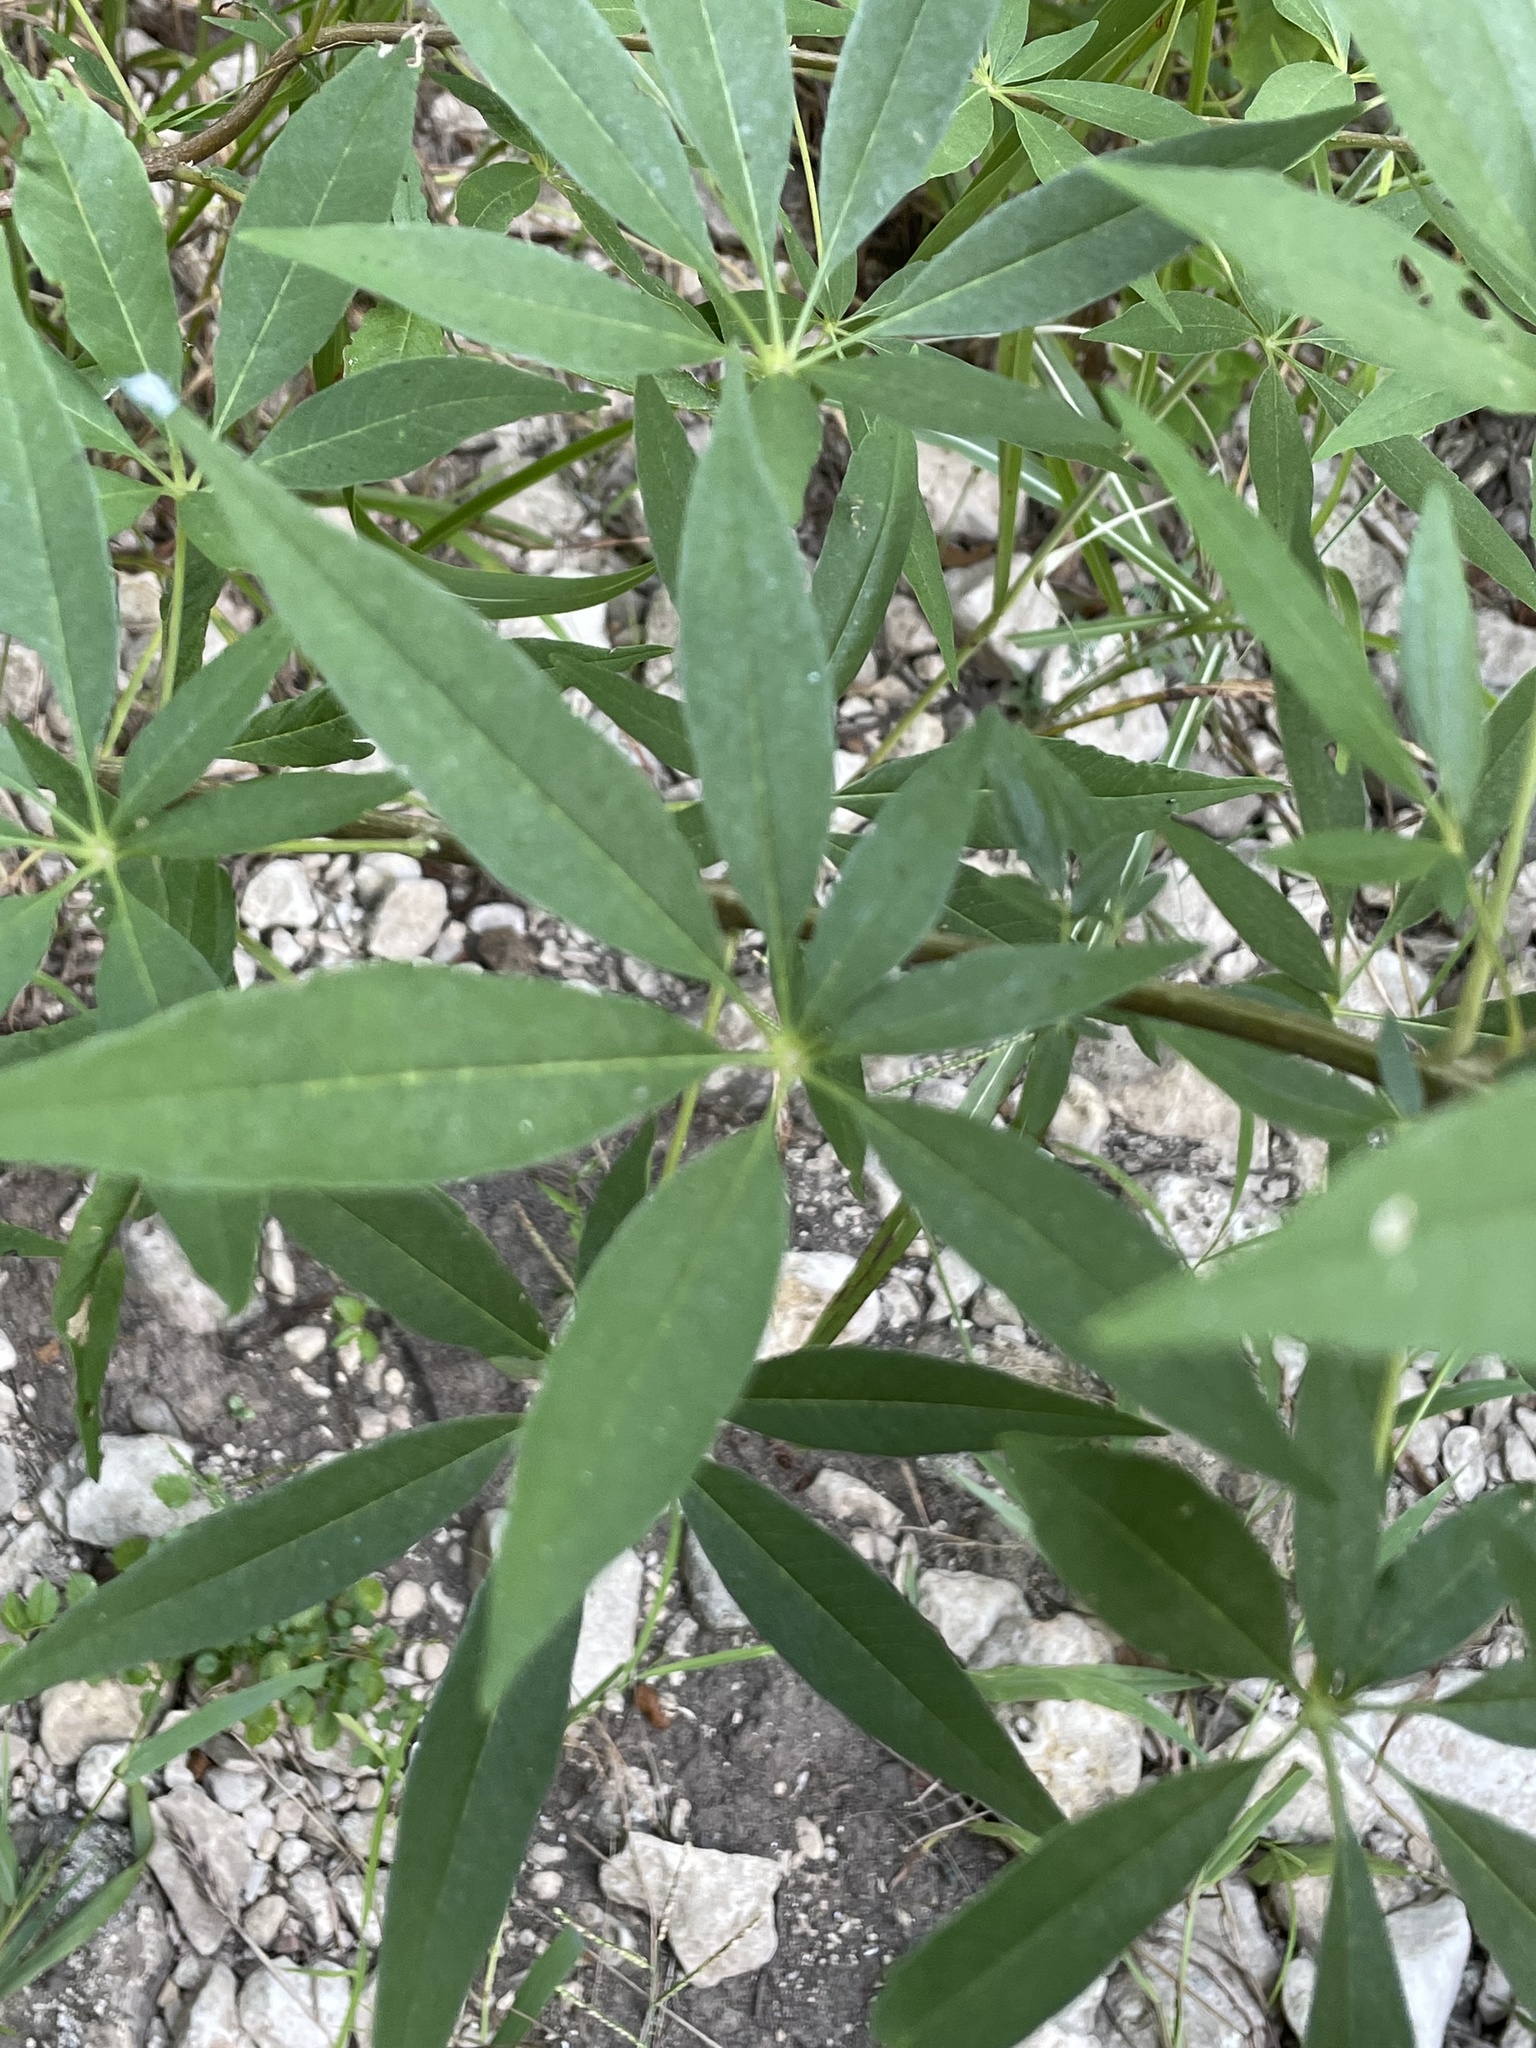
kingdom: Plantae
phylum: Tracheophyta
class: Magnoliopsida
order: Lamiales
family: Lamiaceae
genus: Vitex
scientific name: Vitex agnus-castus
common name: Chasteberry
